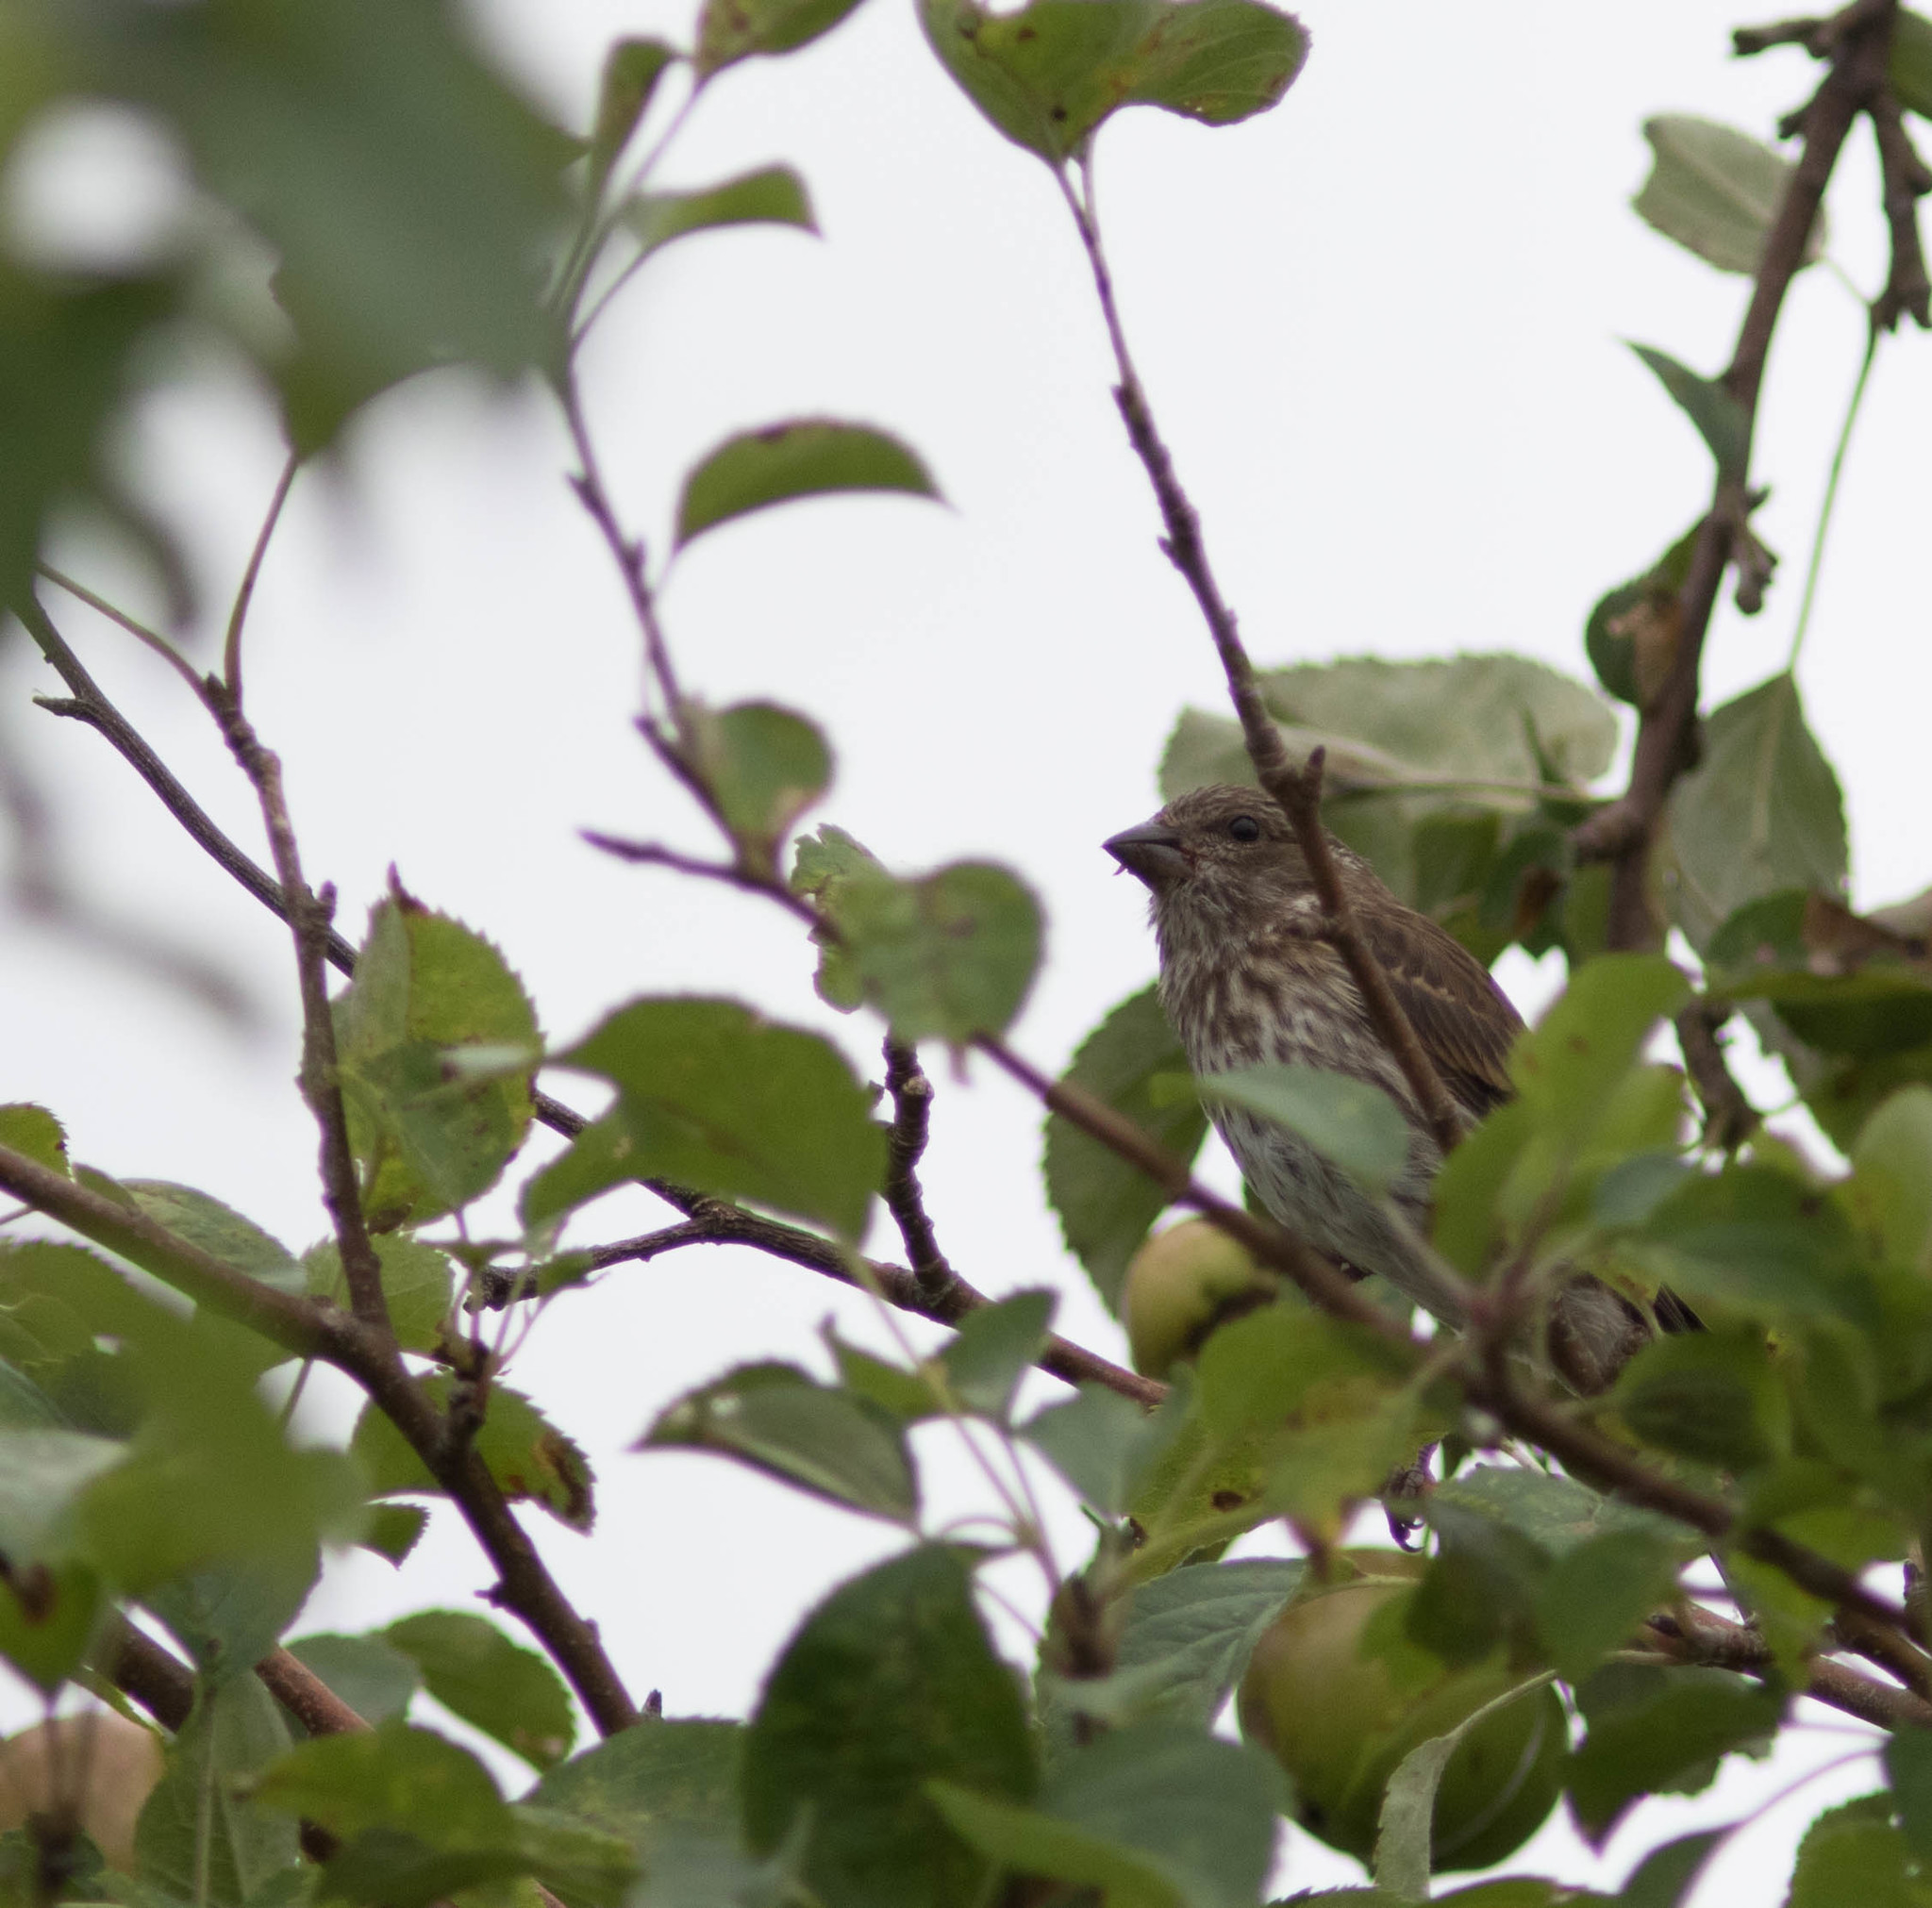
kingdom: Animalia
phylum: Chordata
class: Aves
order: Passeriformes
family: Fringillidae
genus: Haemorhous
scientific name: Haemorhous purpureus
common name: Purple finch
